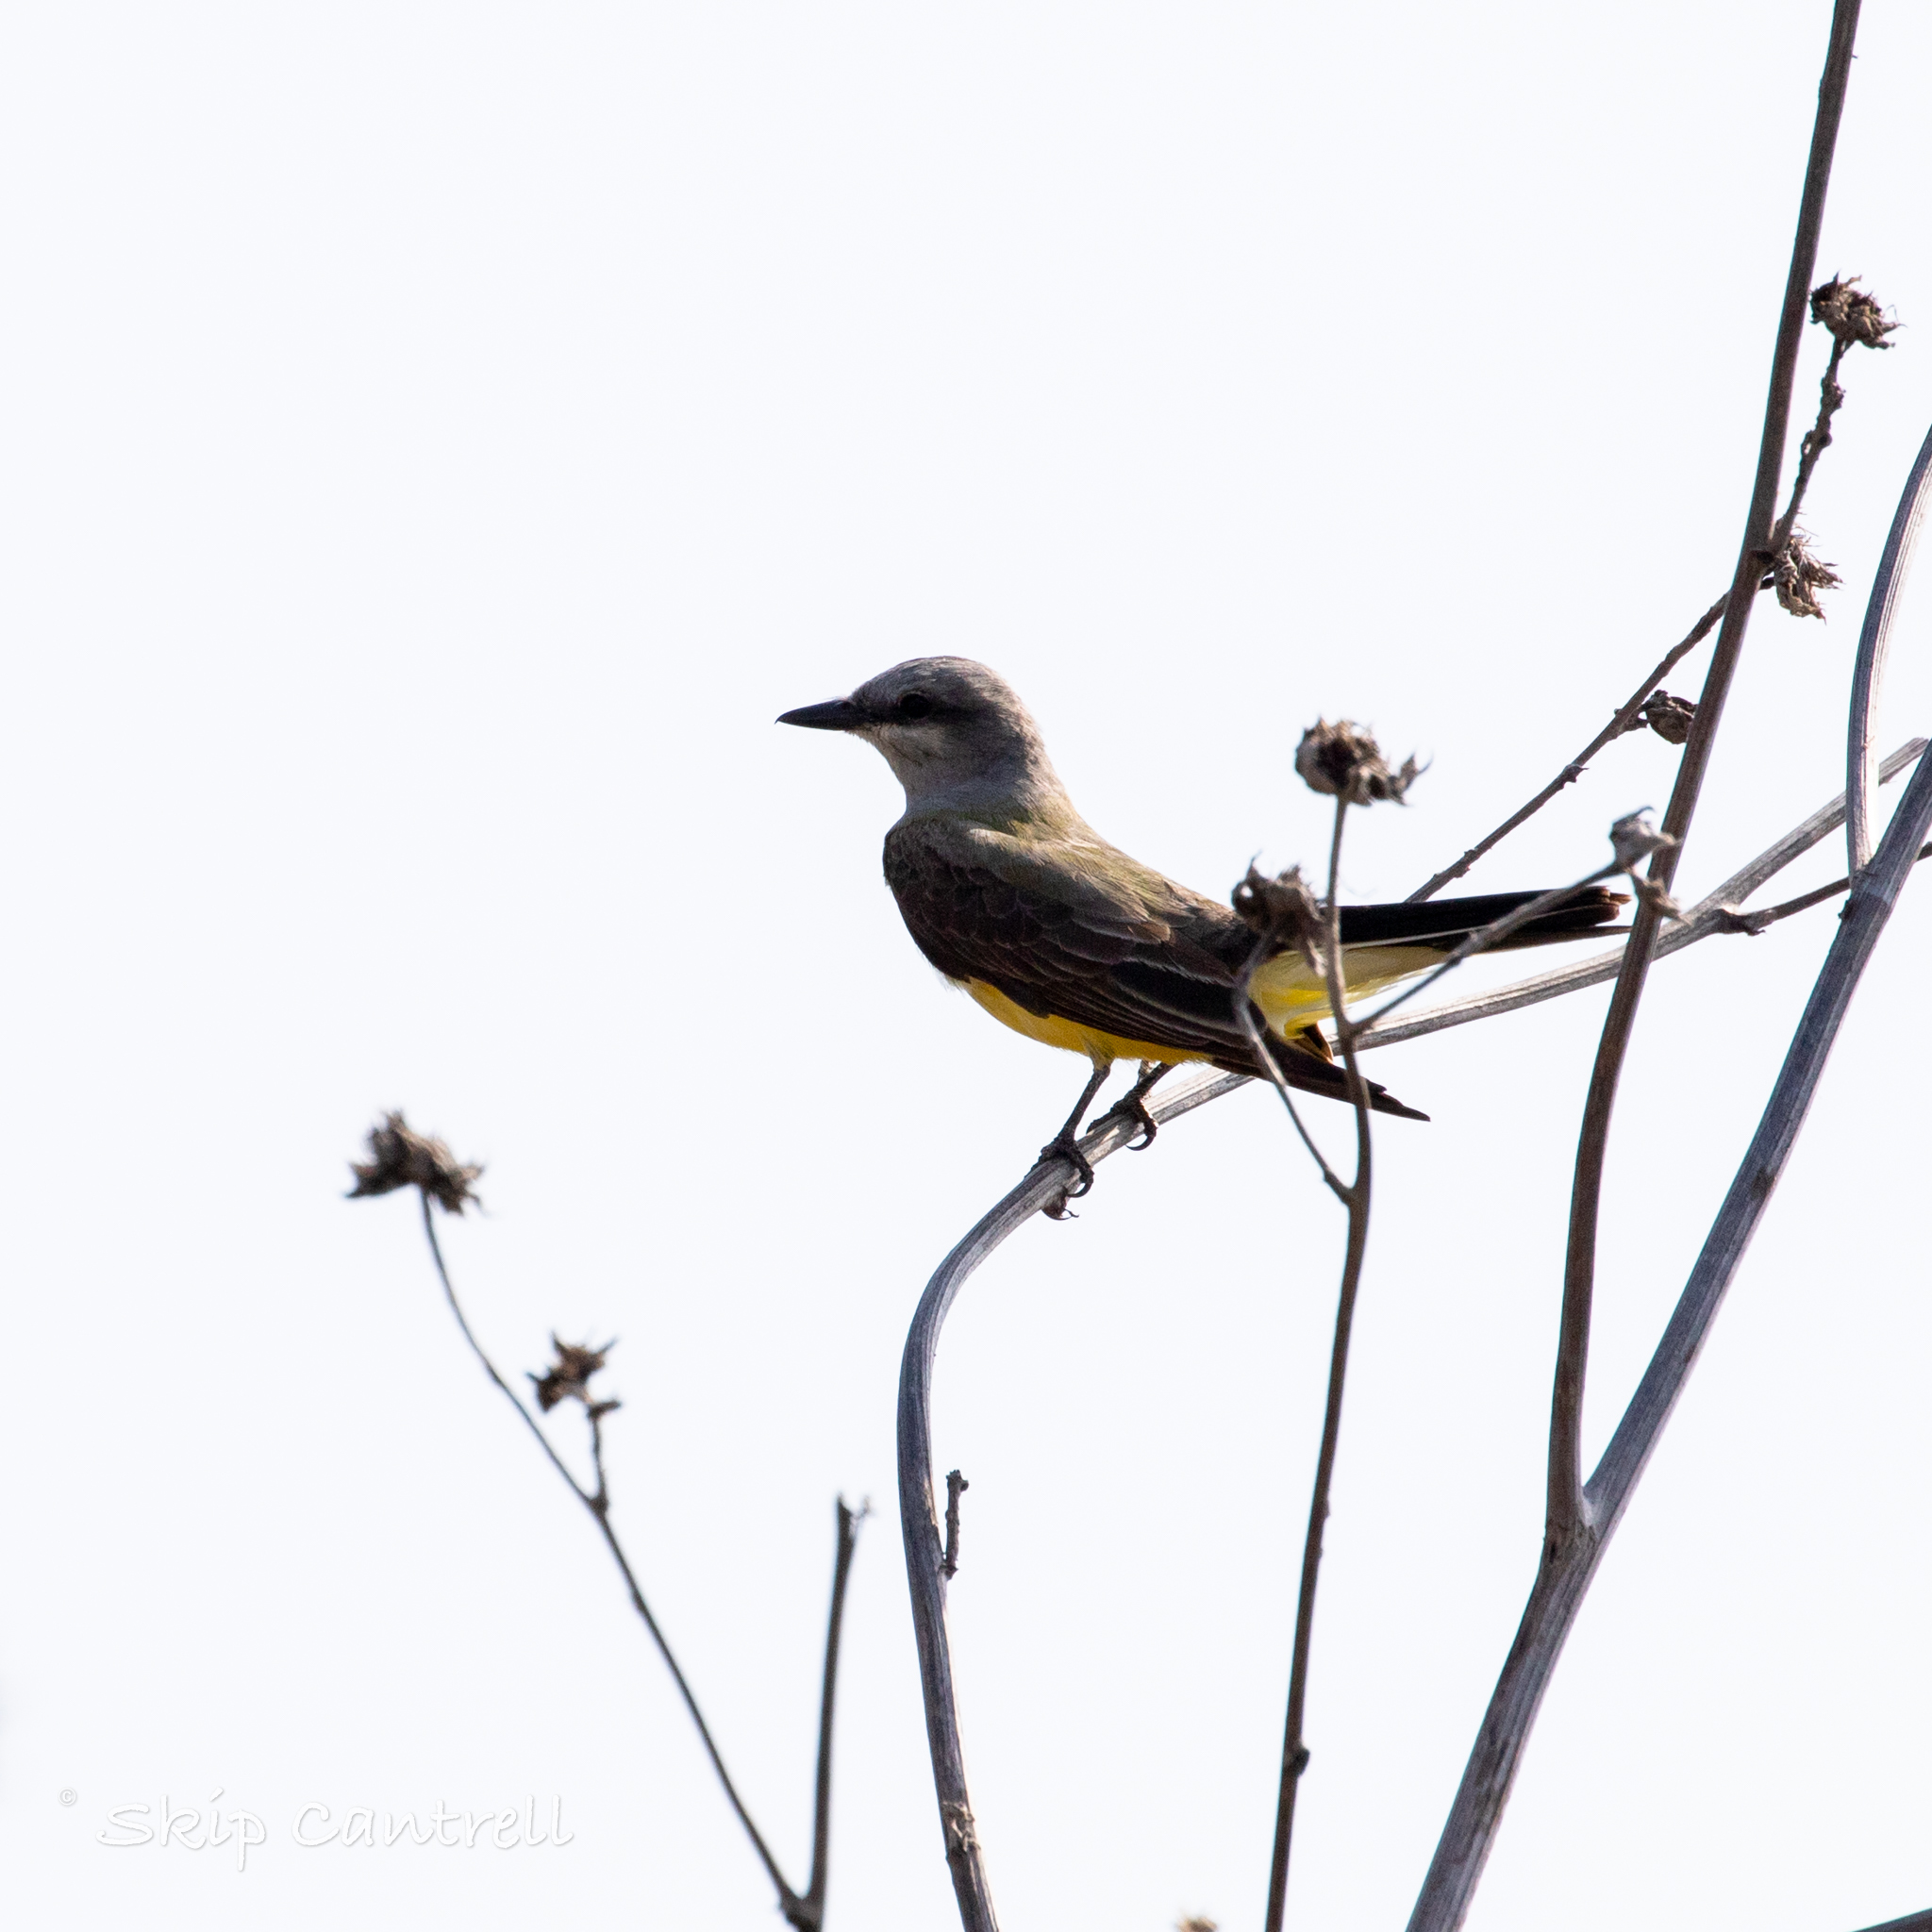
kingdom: Animalia
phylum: Chordata
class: Aves
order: Passeriformes
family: Tyrannidae
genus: Tyrannus
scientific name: Tyrannus verticalis
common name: Western kingbird
